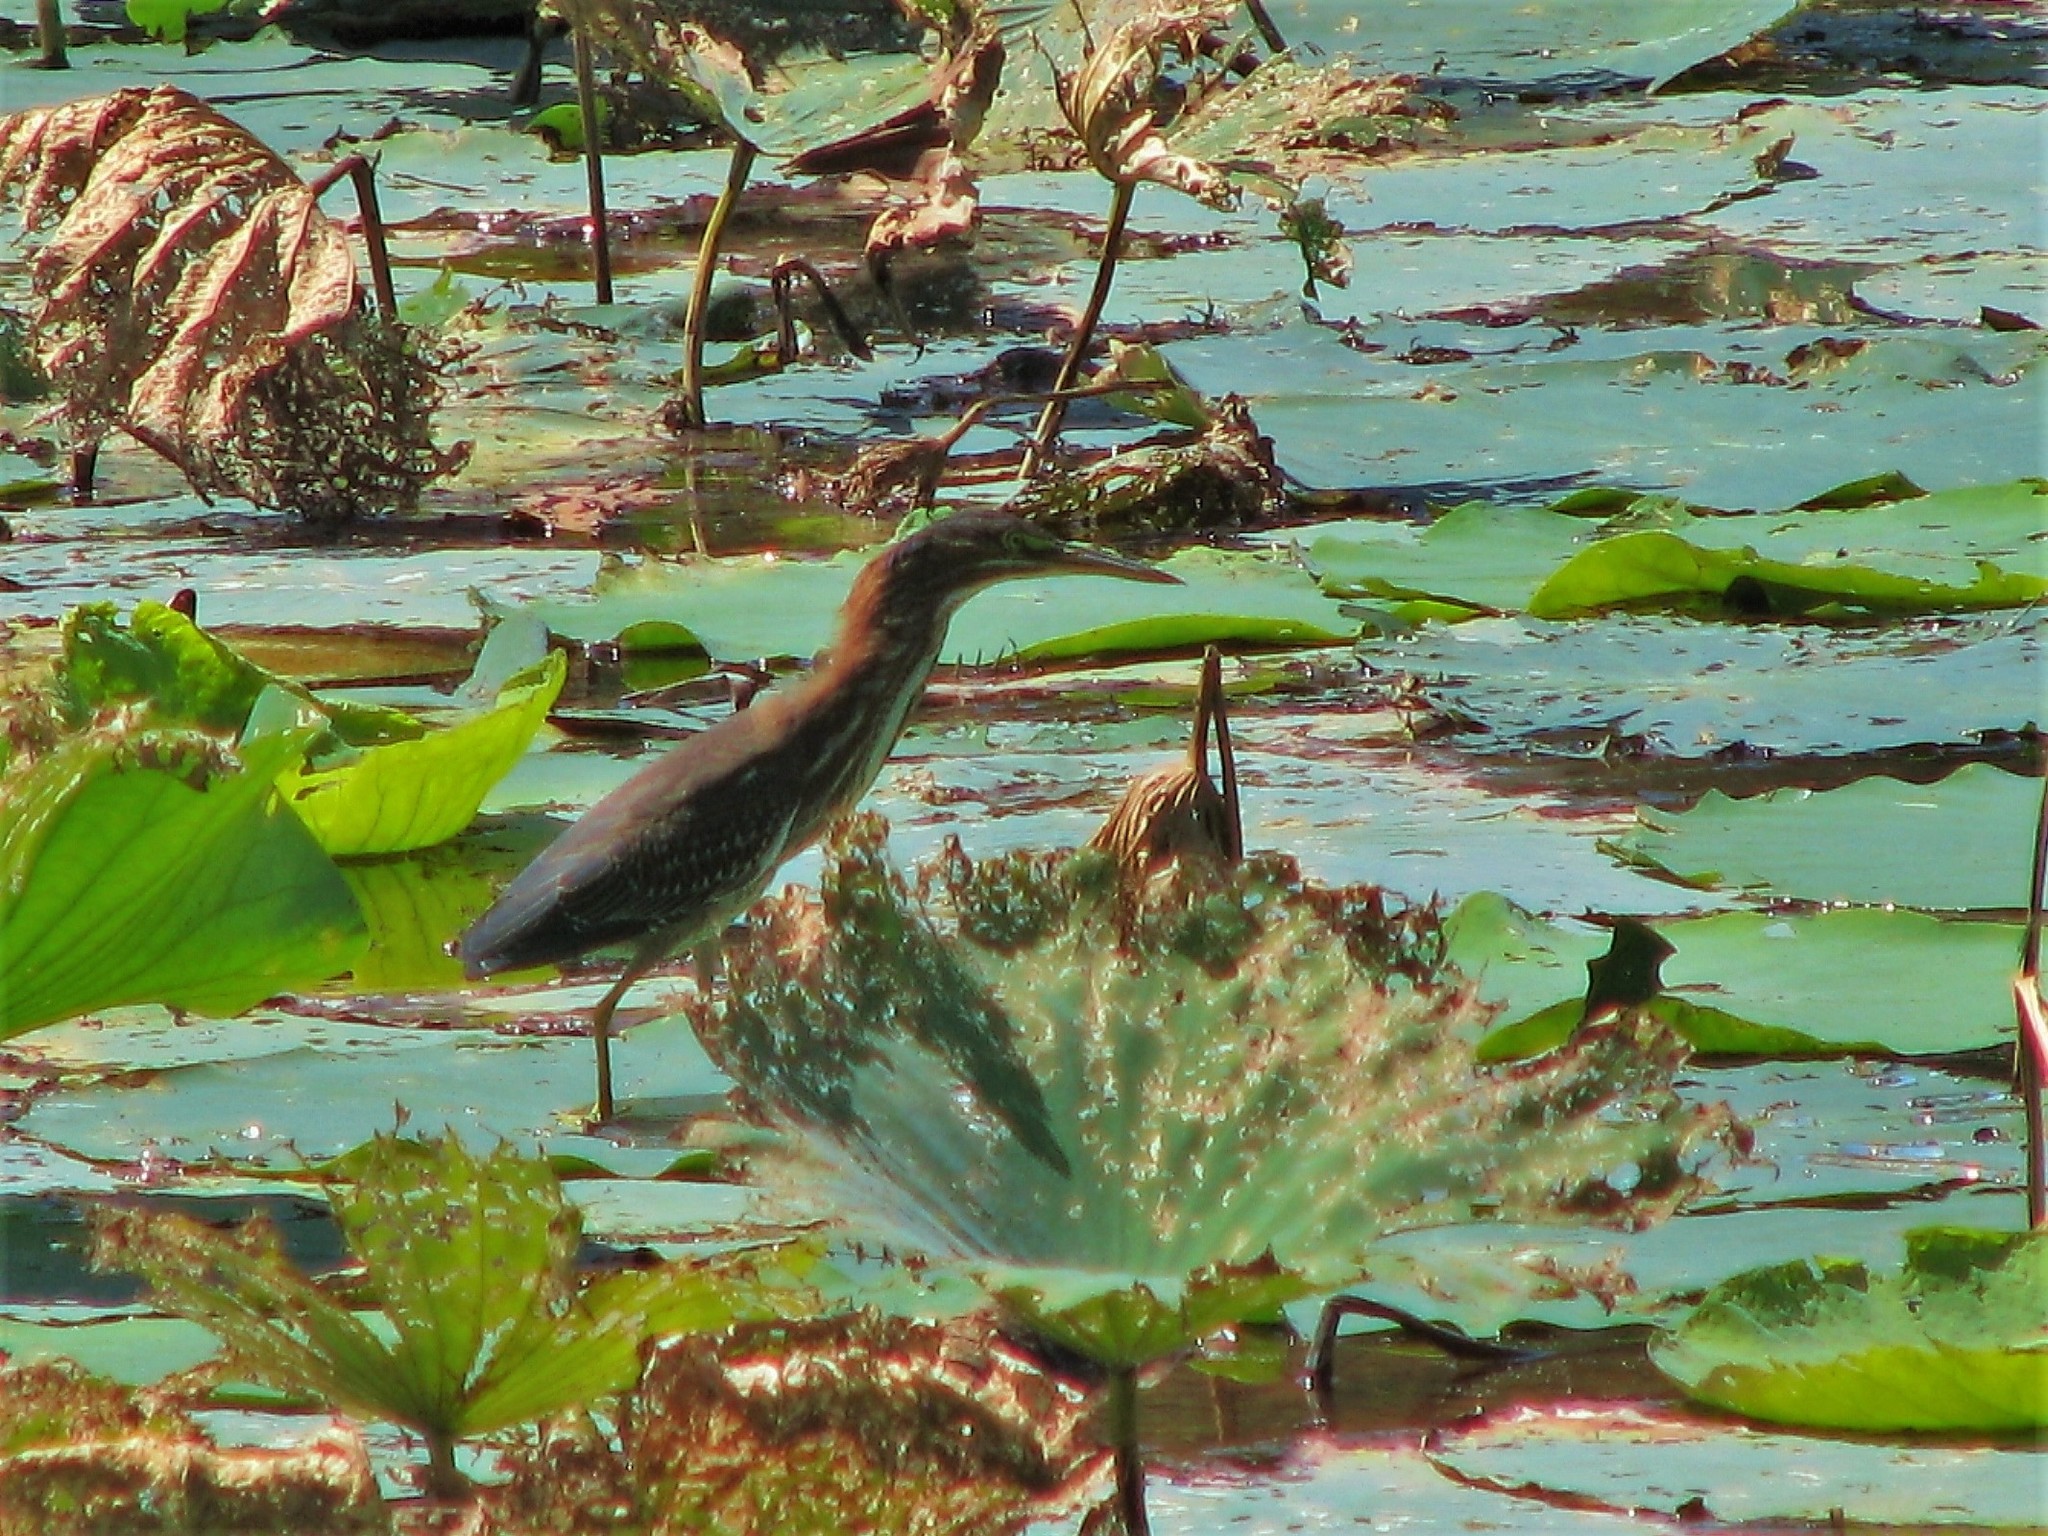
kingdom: Animalia
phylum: Chordata
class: Aves
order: Pelecaniformes
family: Ardeidae
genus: Butorides
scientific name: Butorides virescens
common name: Green heron
